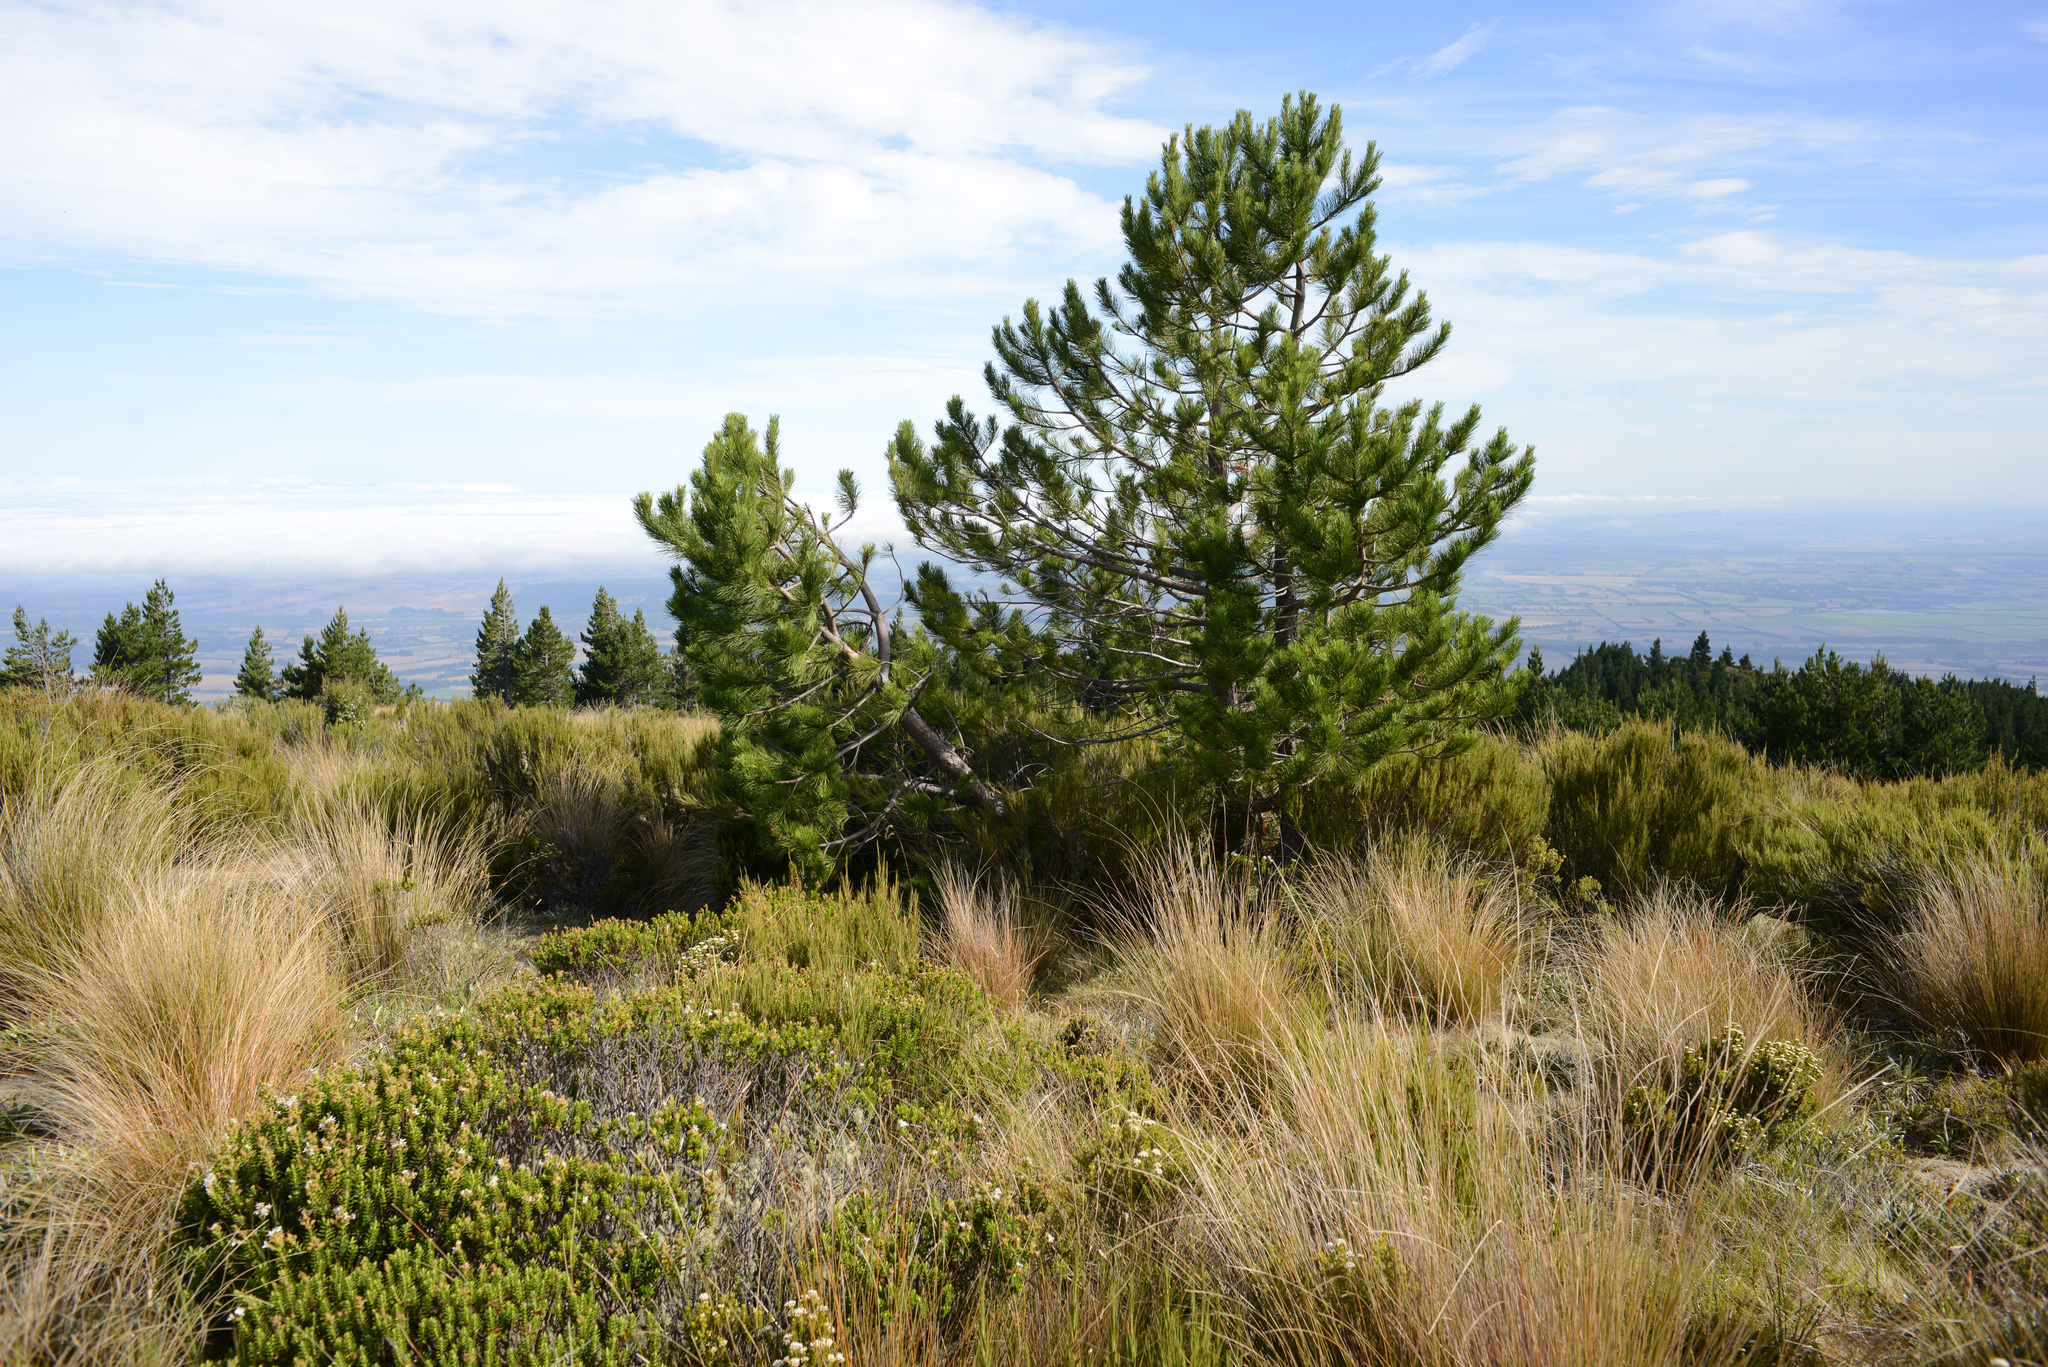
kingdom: Plantae
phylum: Tracheophyta
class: Pinopsida
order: Pinales
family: Pinaceae
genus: Pinus
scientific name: Pinus nigra
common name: Austrian pine
